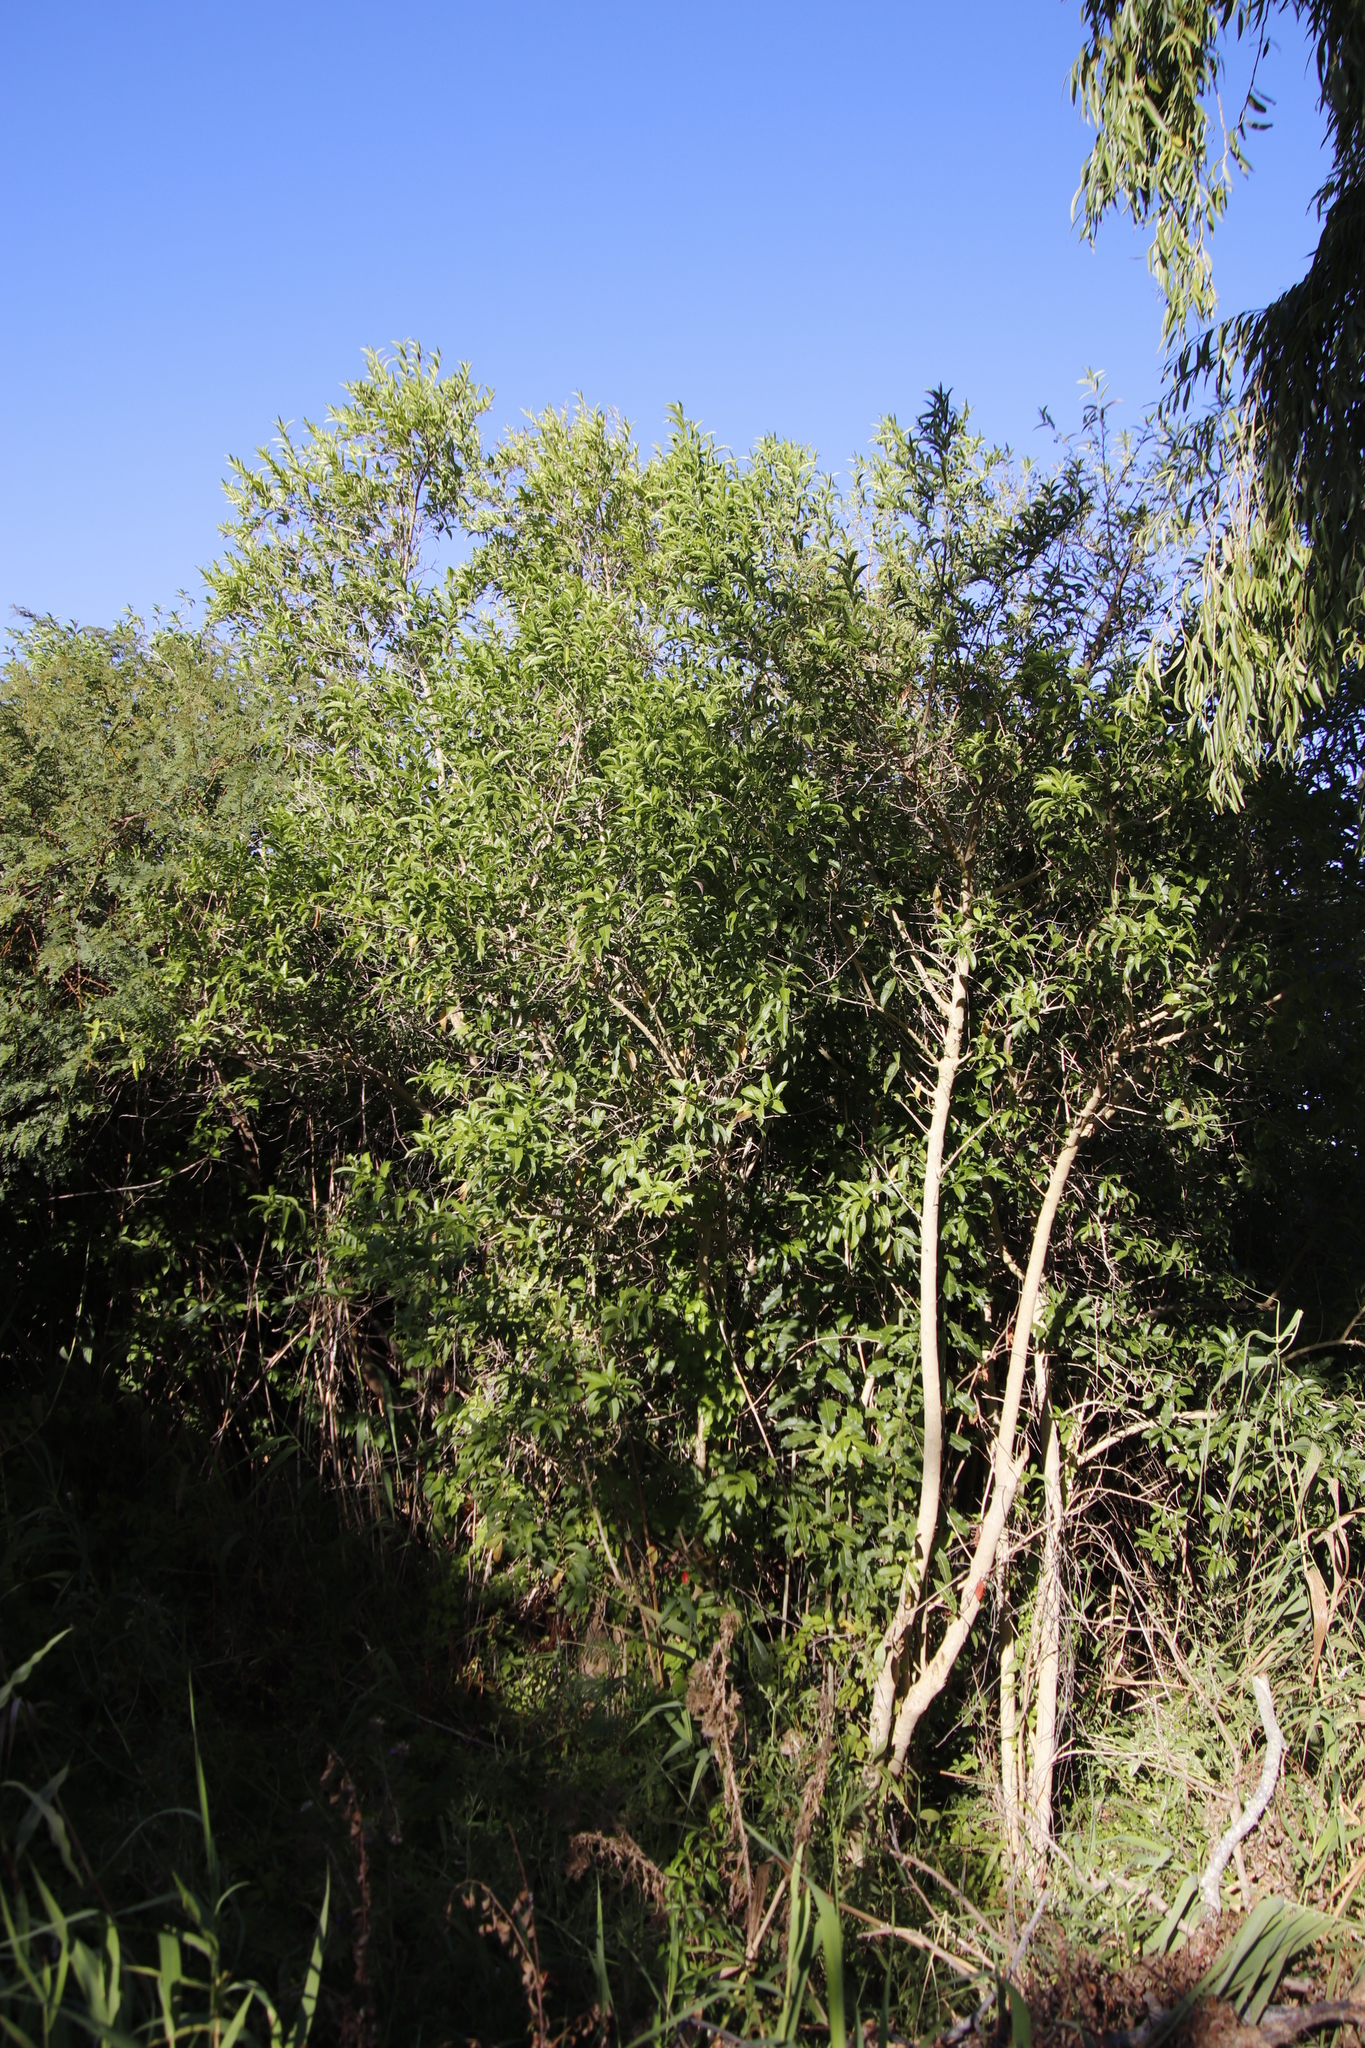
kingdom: Plantae
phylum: Tracheophyta
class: Magnoliopsida
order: Solanales
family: Solanaceae
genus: Cestrum
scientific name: Cestrum laevigatum
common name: Inkberry
